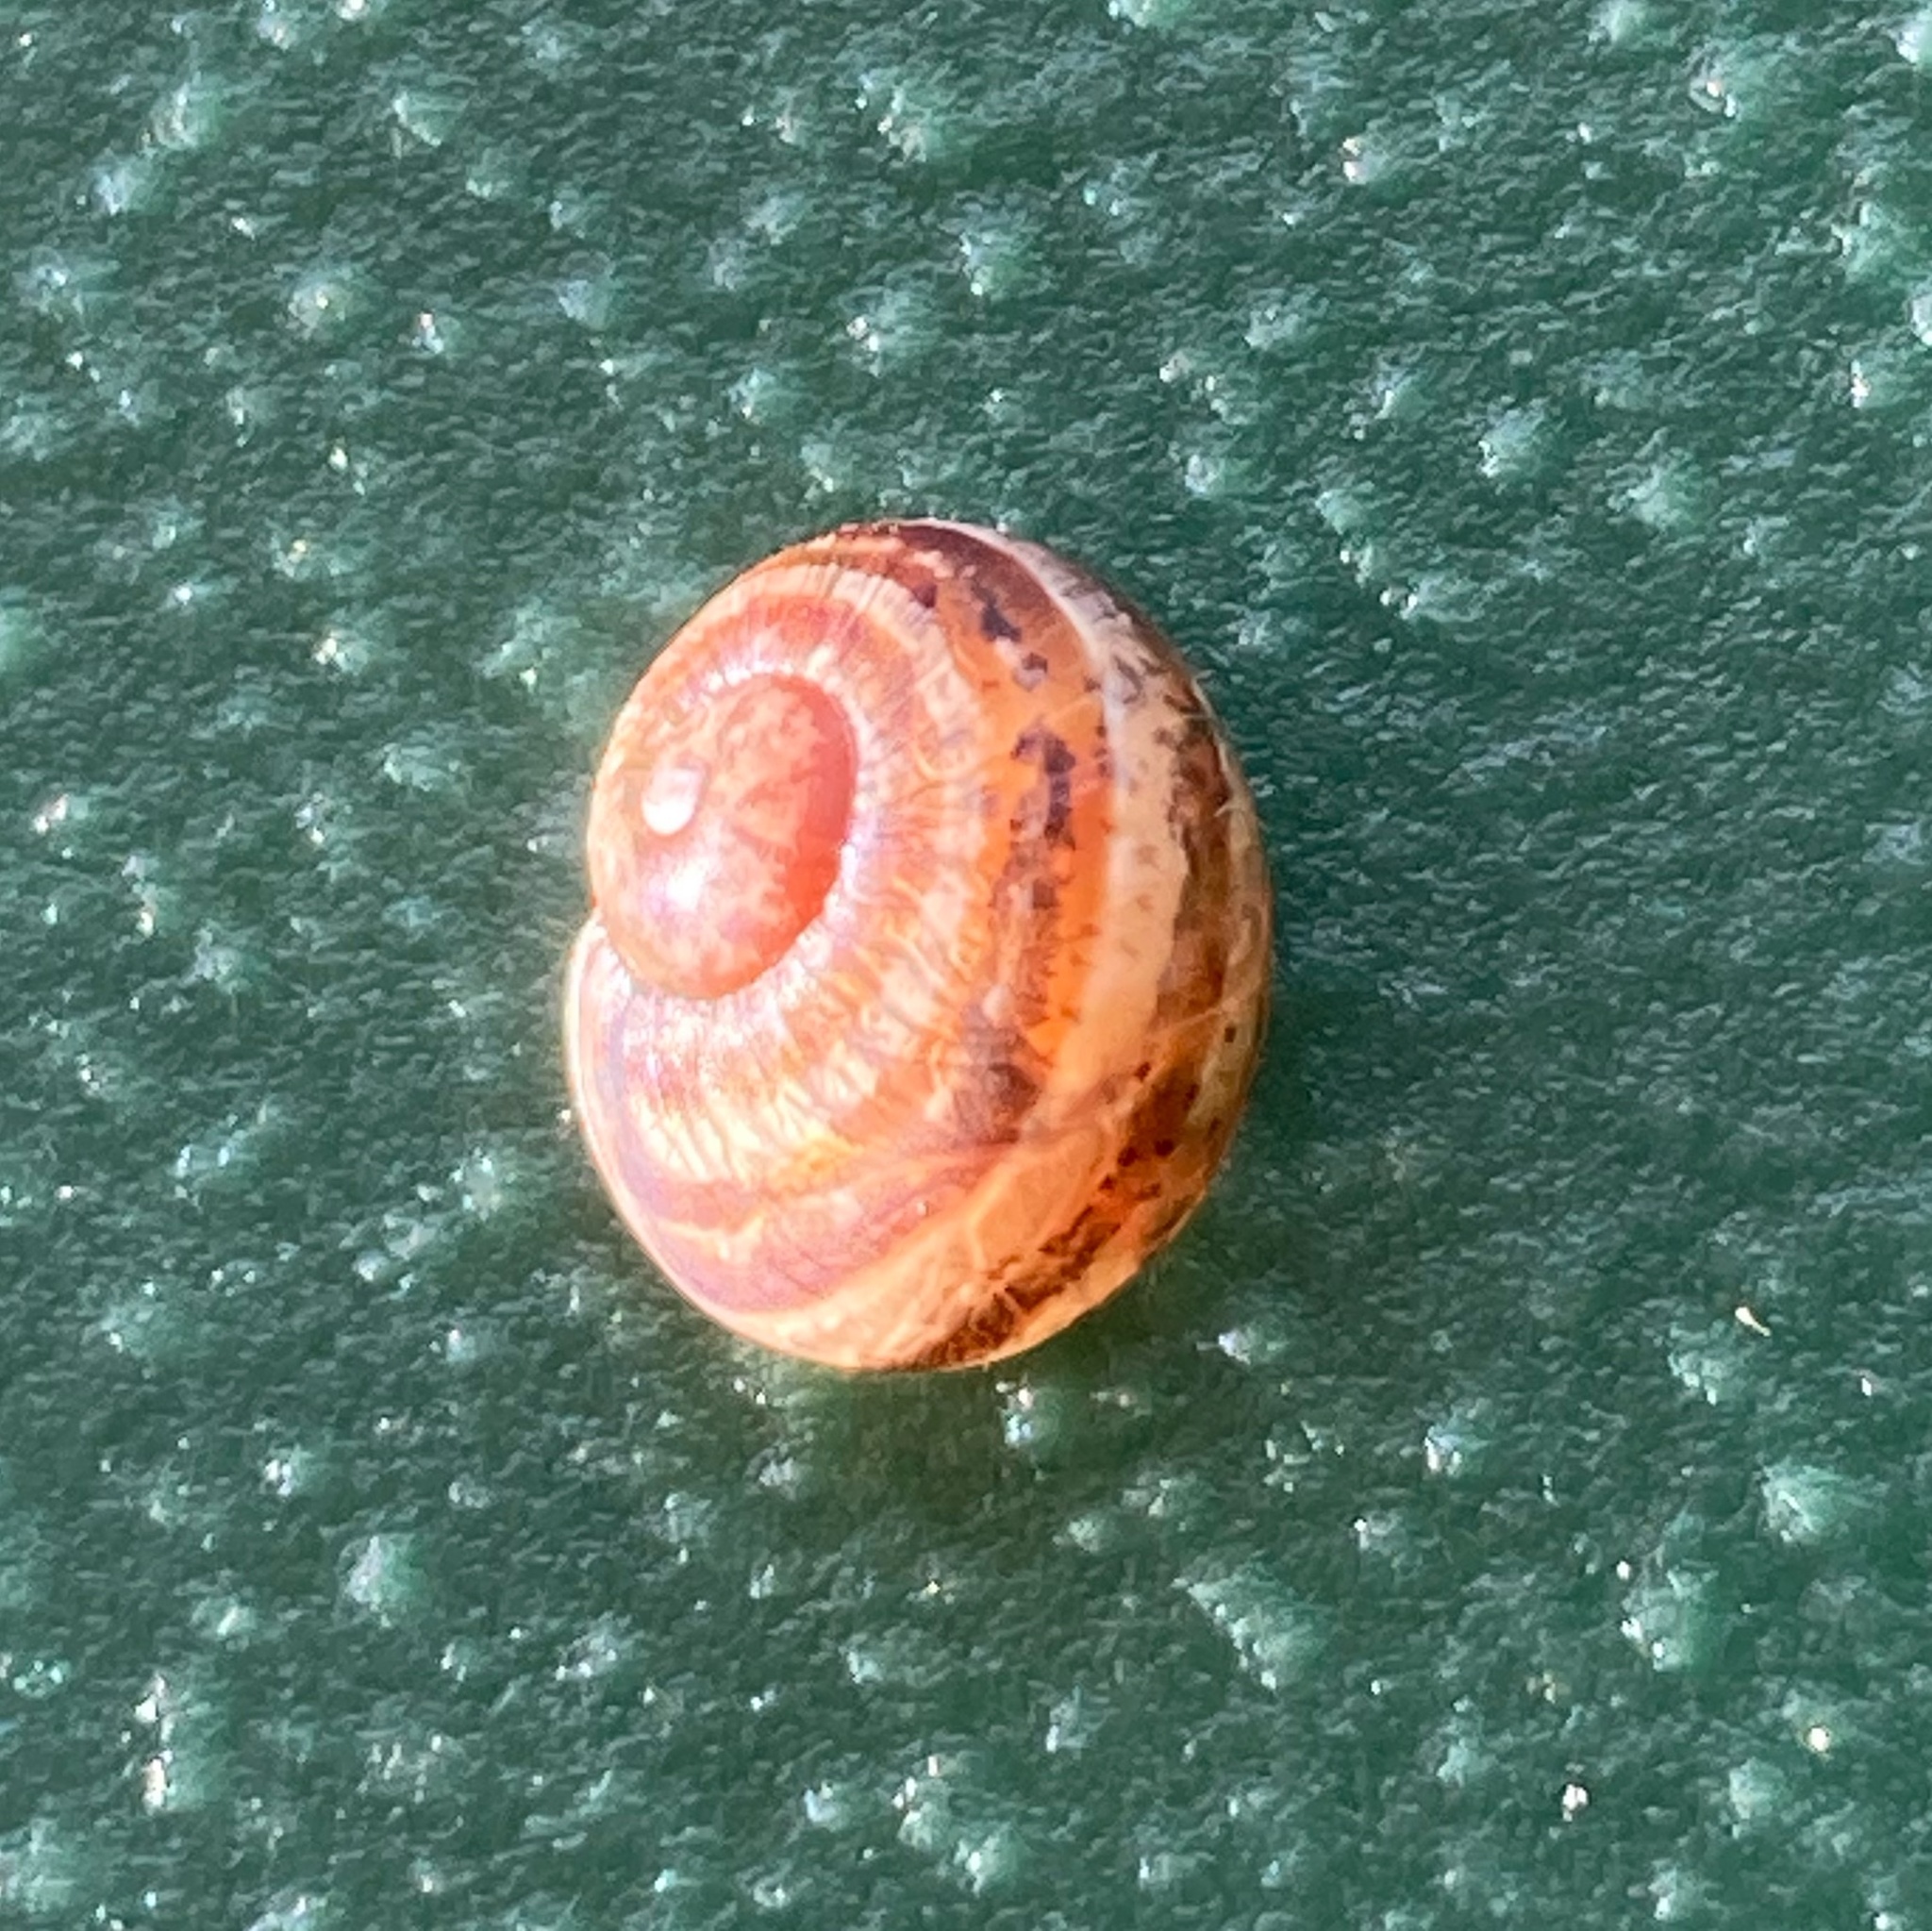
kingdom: Animalia
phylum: Mollusca
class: Gastropoda
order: Stylommatophora
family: Helicidae
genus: Cornu
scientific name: Cornu aspersum
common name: Brown garden snail
